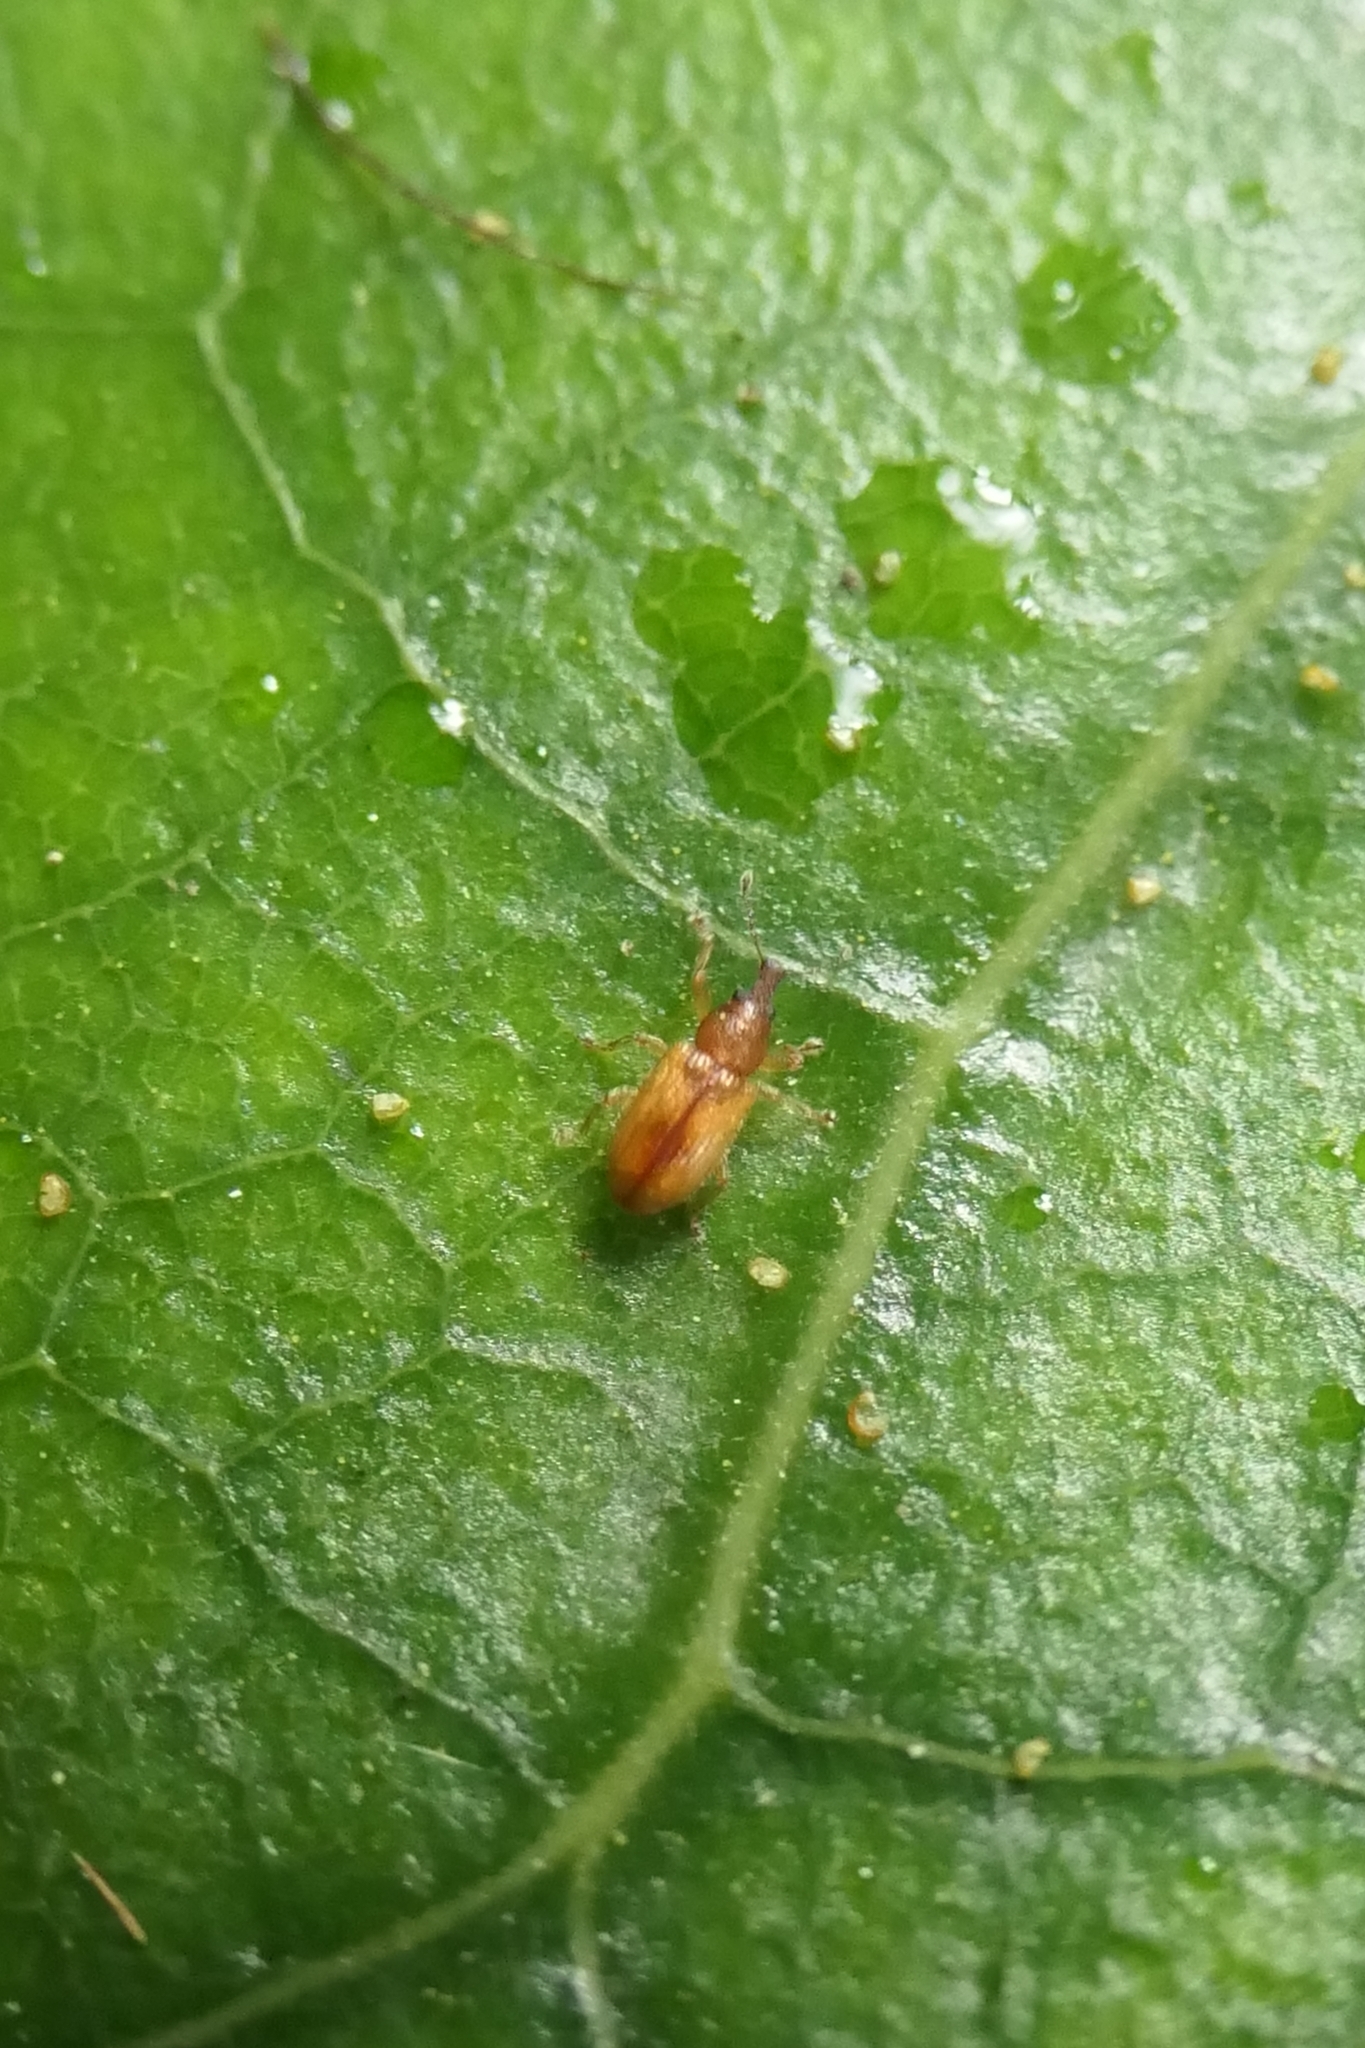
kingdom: Animalia
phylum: Arthropoda
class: Insecta
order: Coleoptera
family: Curculionidae
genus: Neomycta
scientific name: Neomycta pulicaris
